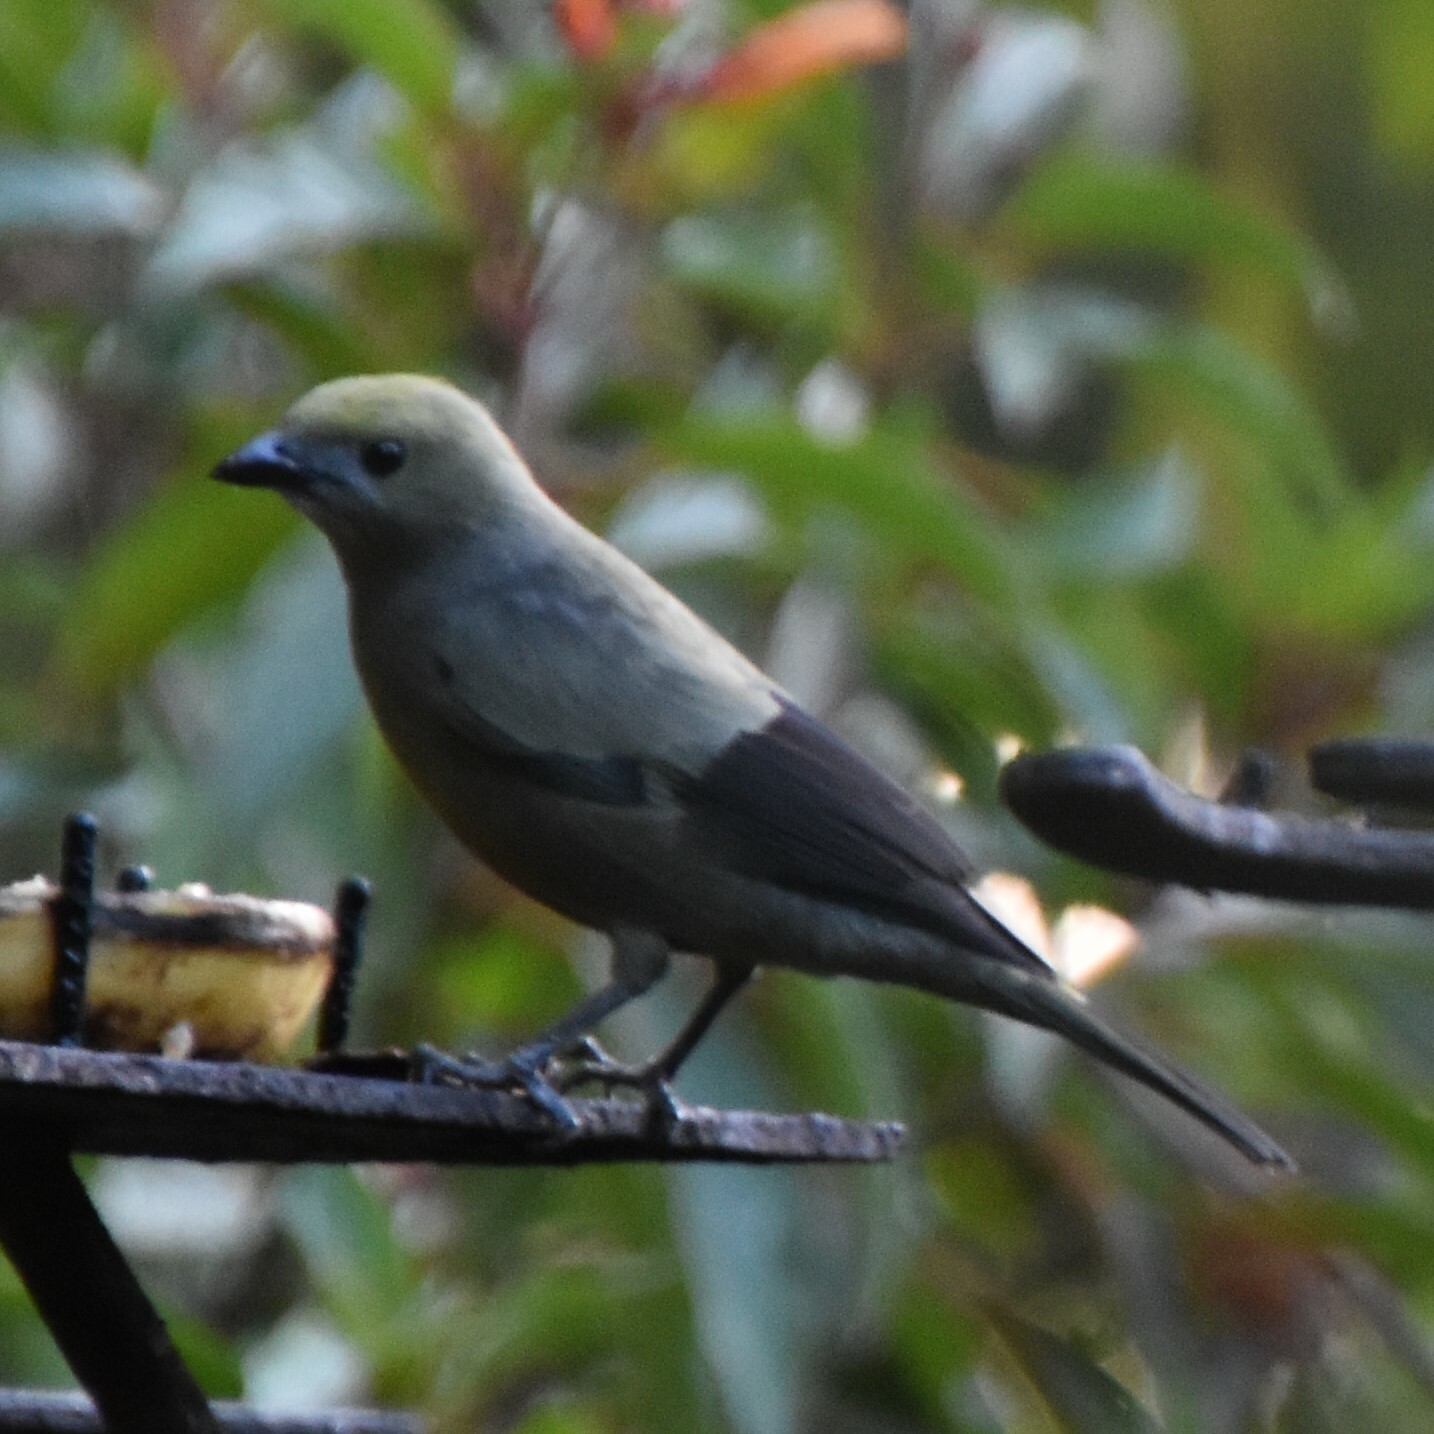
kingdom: Animalia
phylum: Chordata
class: Aves
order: Passeriformes
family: Thraupidae
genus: Thraupis
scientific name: Thraupis palmarum
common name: Palm tanager
